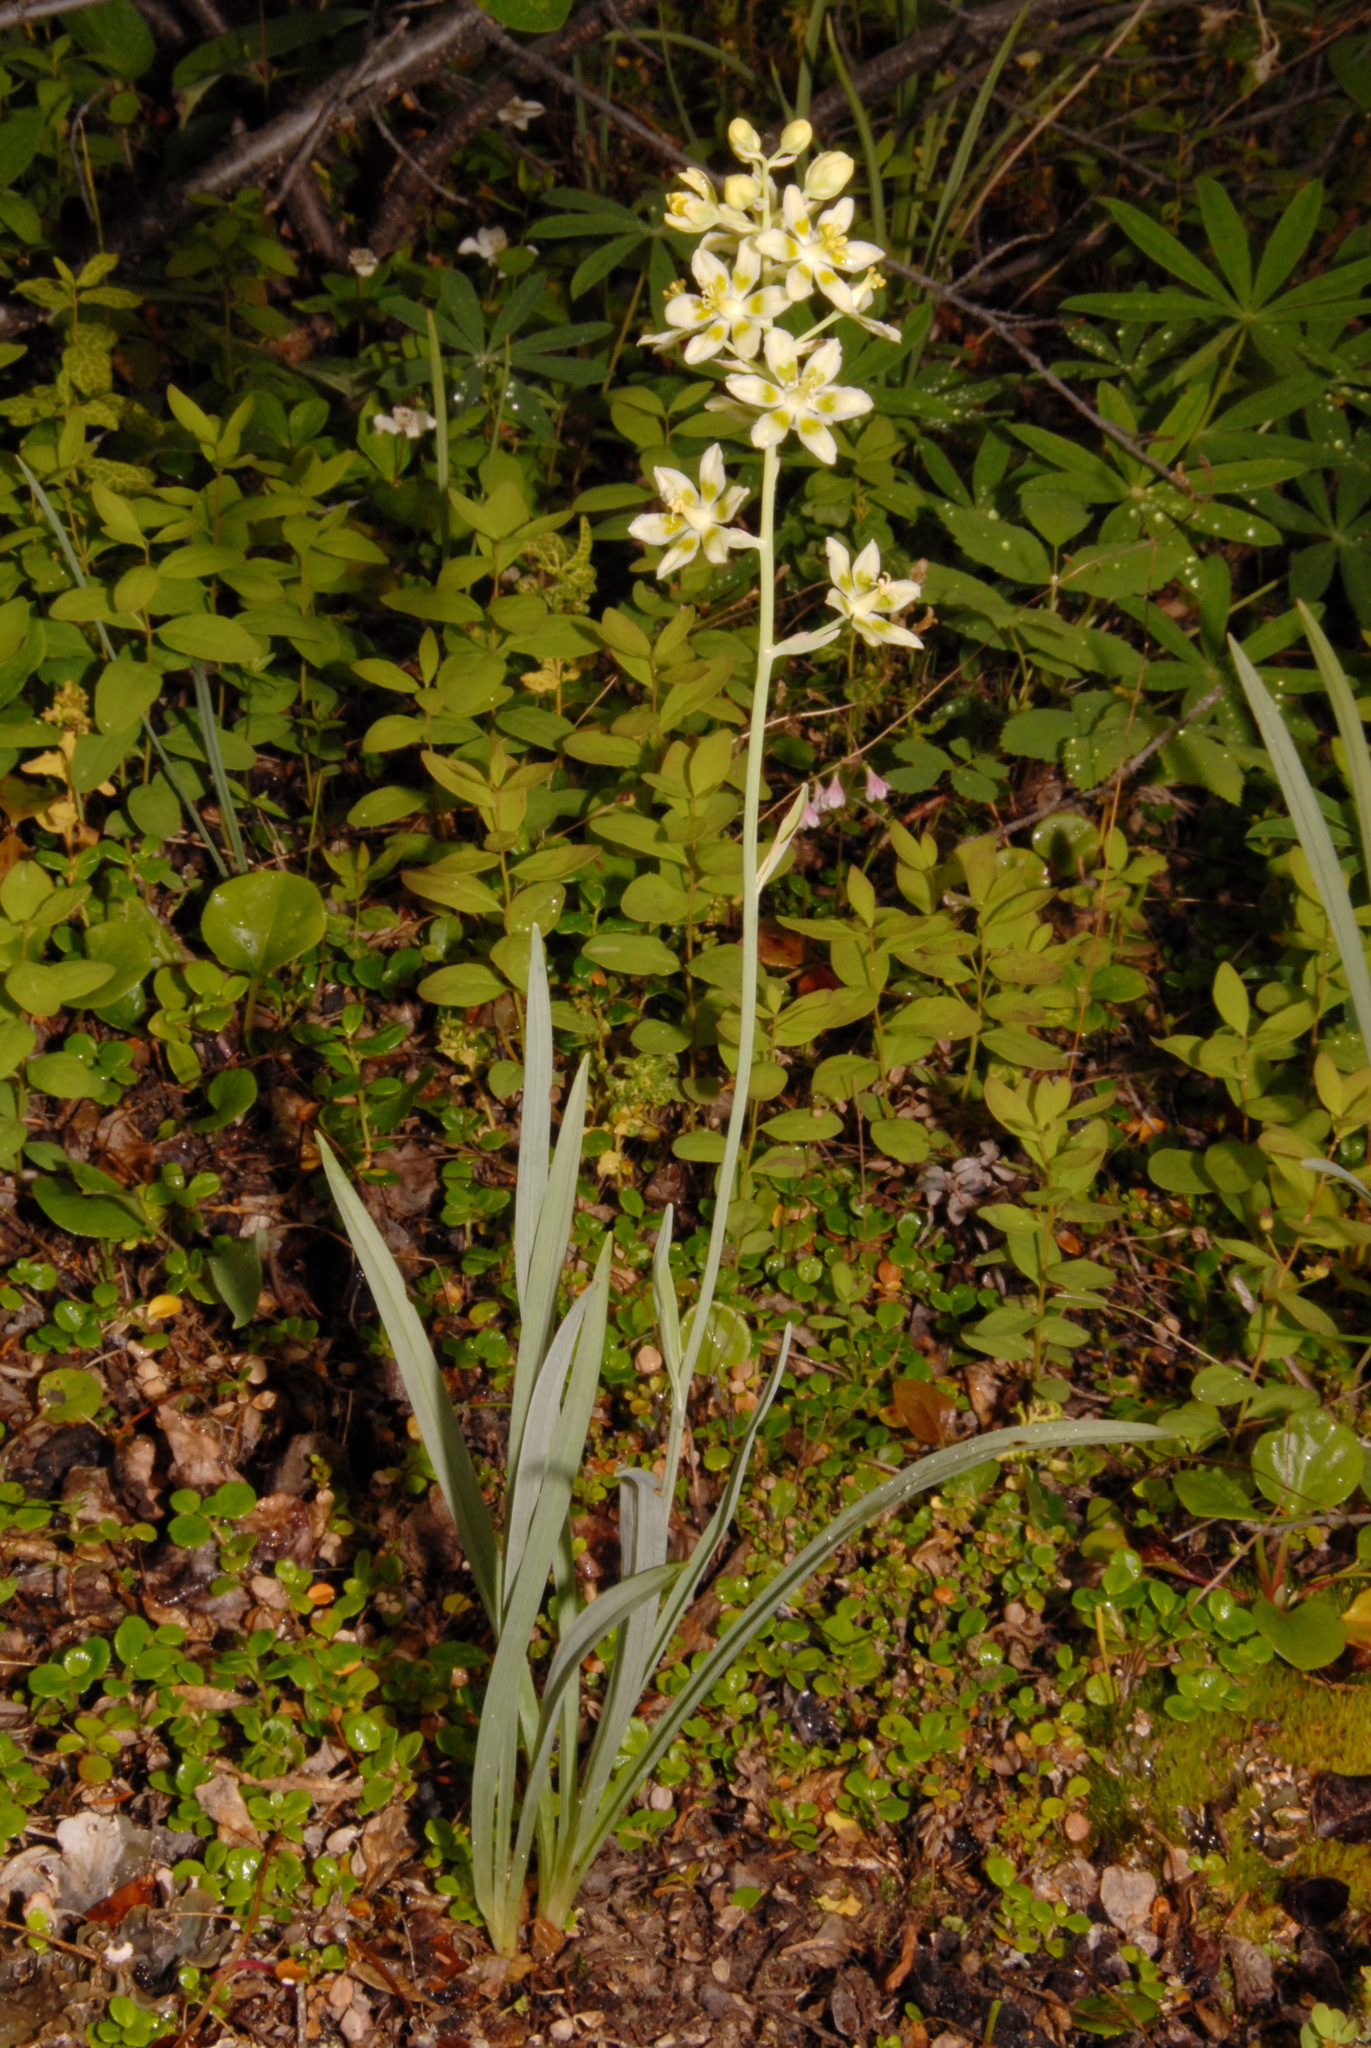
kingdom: Plantae
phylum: Tracheophyta
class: Liliopsida
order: Liliales
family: Melanthiaceae
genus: Anticlea
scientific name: Anticlea elegans
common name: Mountain death camas
